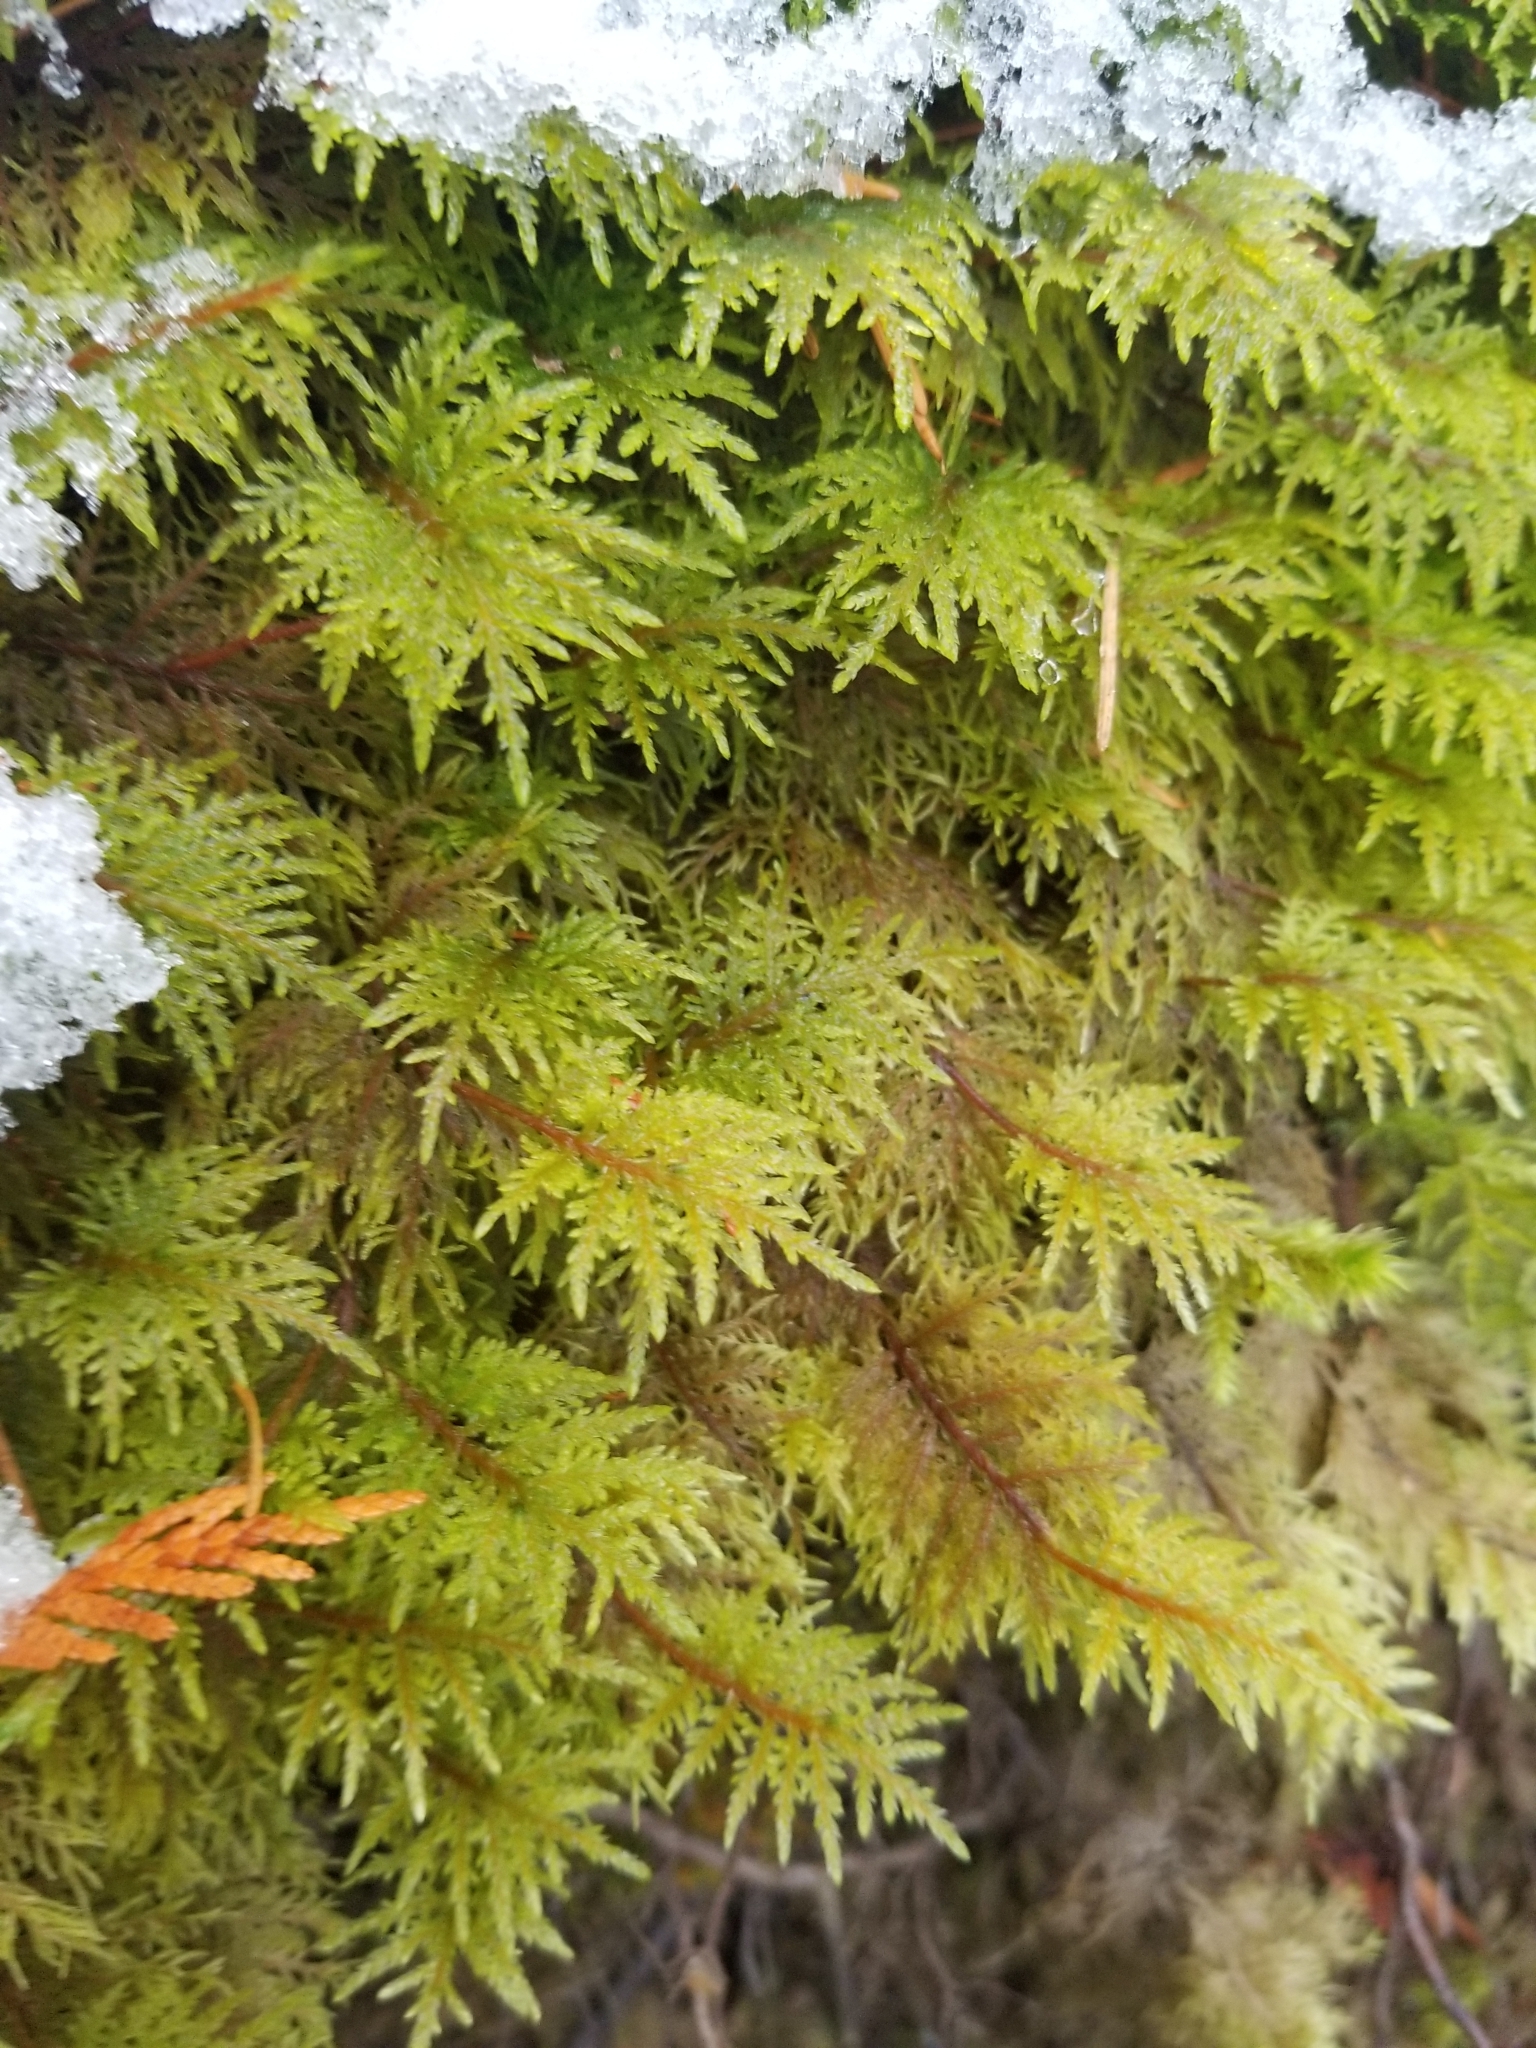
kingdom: Plantae
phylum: Bryophyta
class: Bryopsida
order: Hypnales
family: Hylocomiaceae
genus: Hylocomium
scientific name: Hylocomium splendens
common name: Stairstep moss
